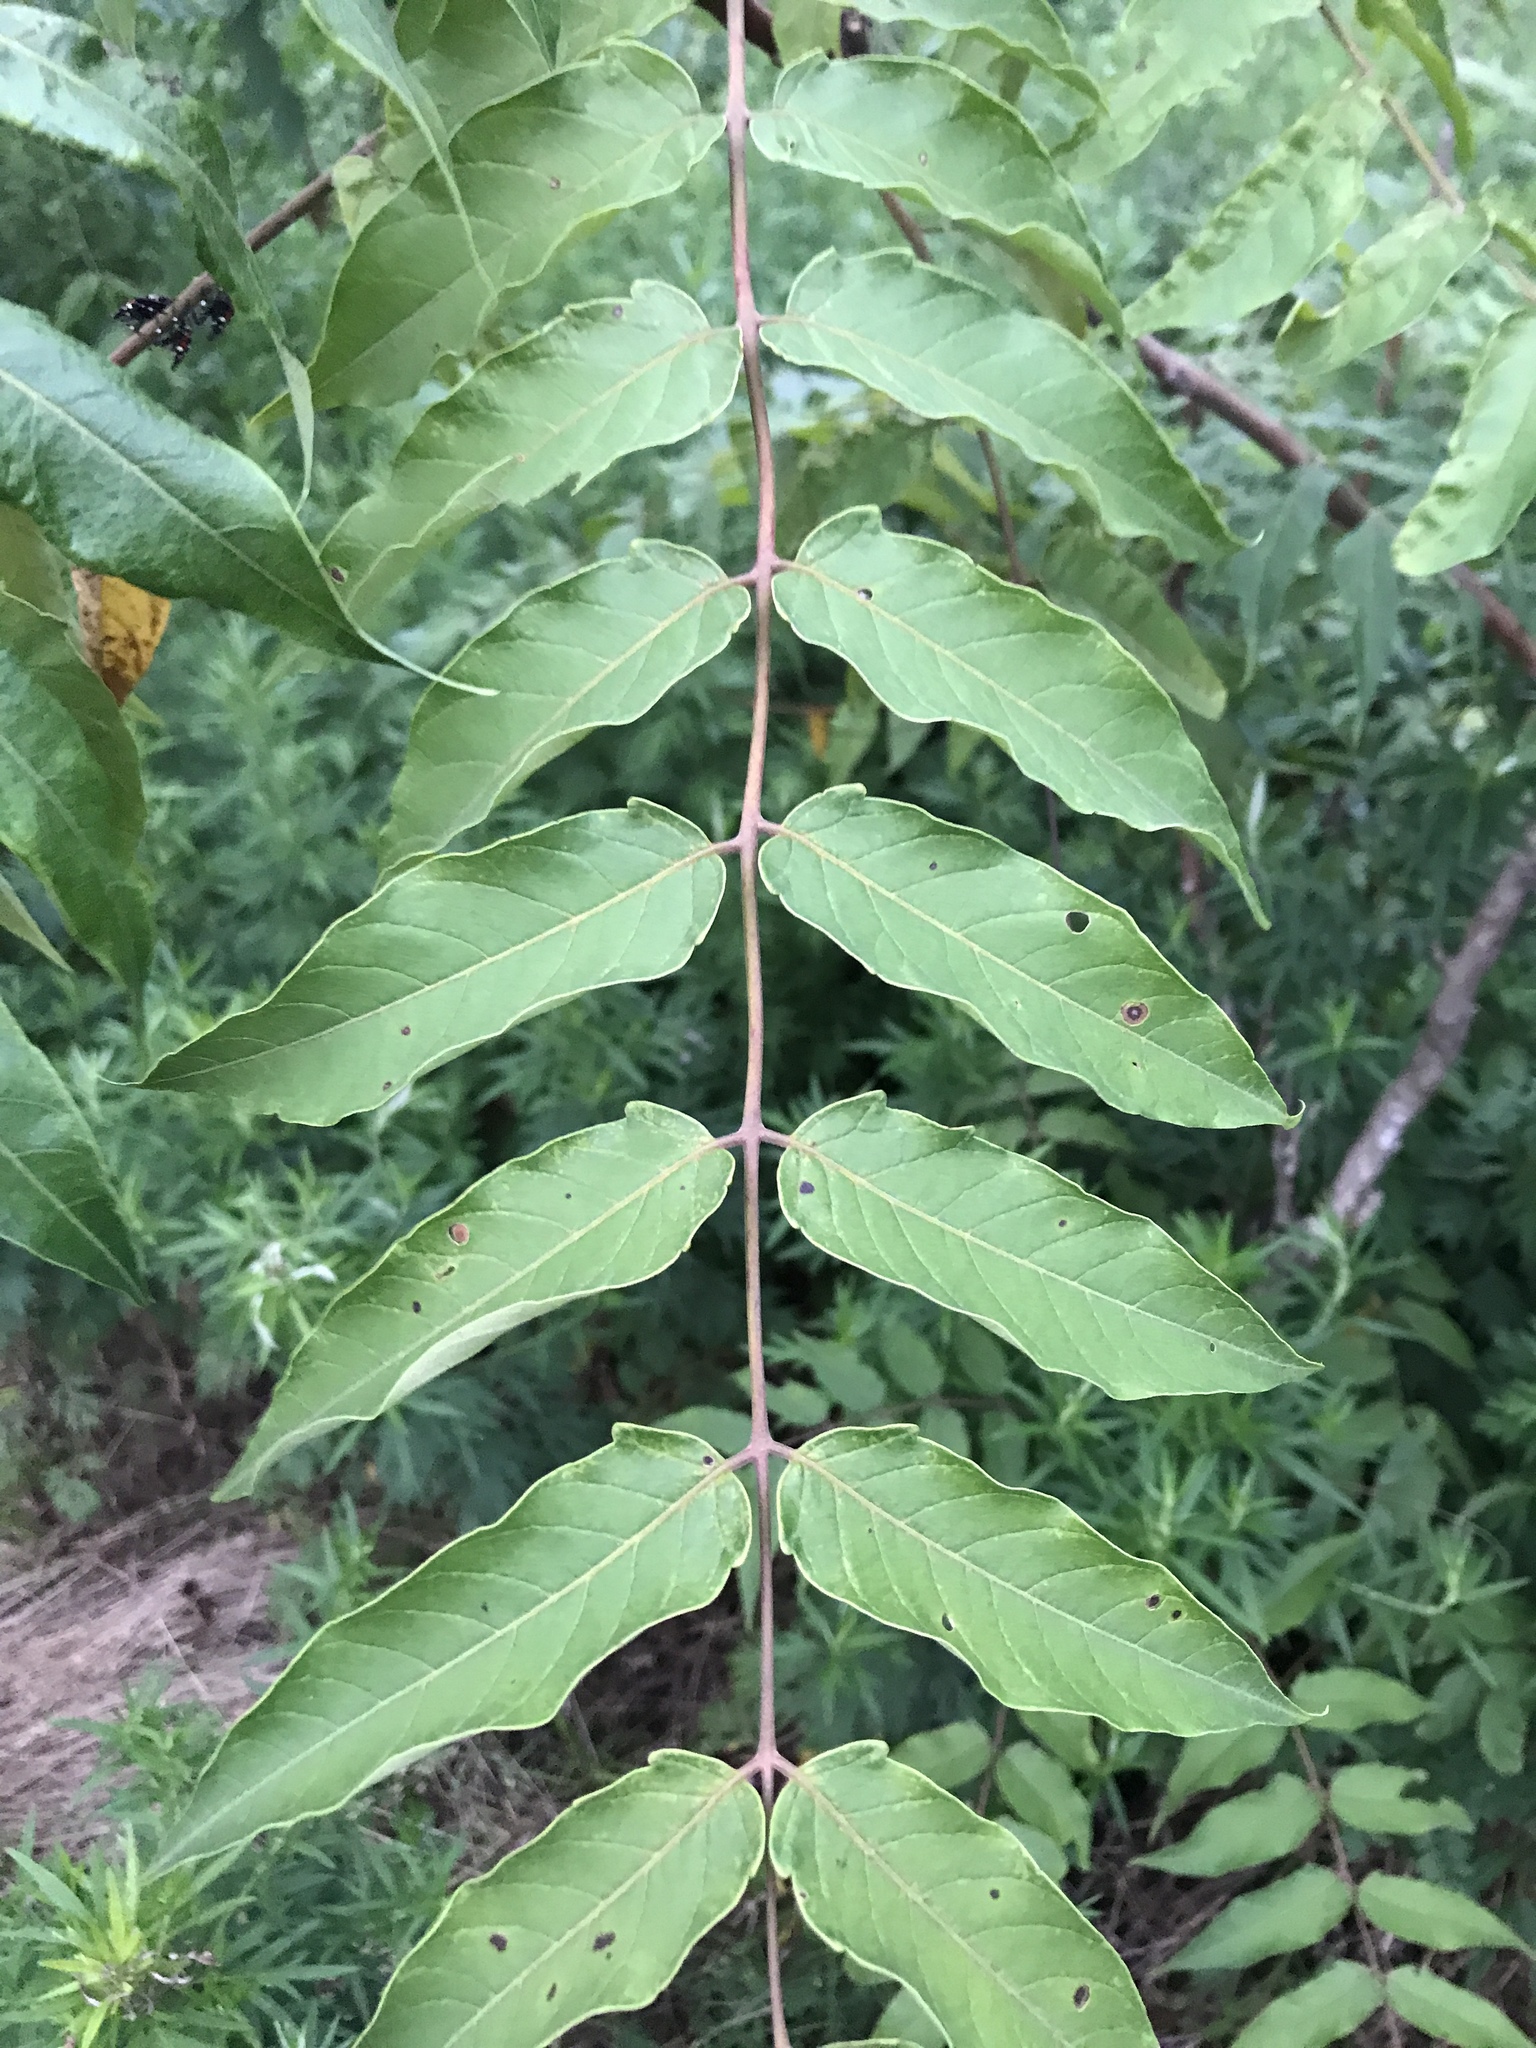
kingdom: Plantae
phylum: Tracheophyta
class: Magnoliopsida
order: Sapindales
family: Simaroubaceae
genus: Ailanthus
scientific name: Ailanthus altissima
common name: Tree-of-heaven
